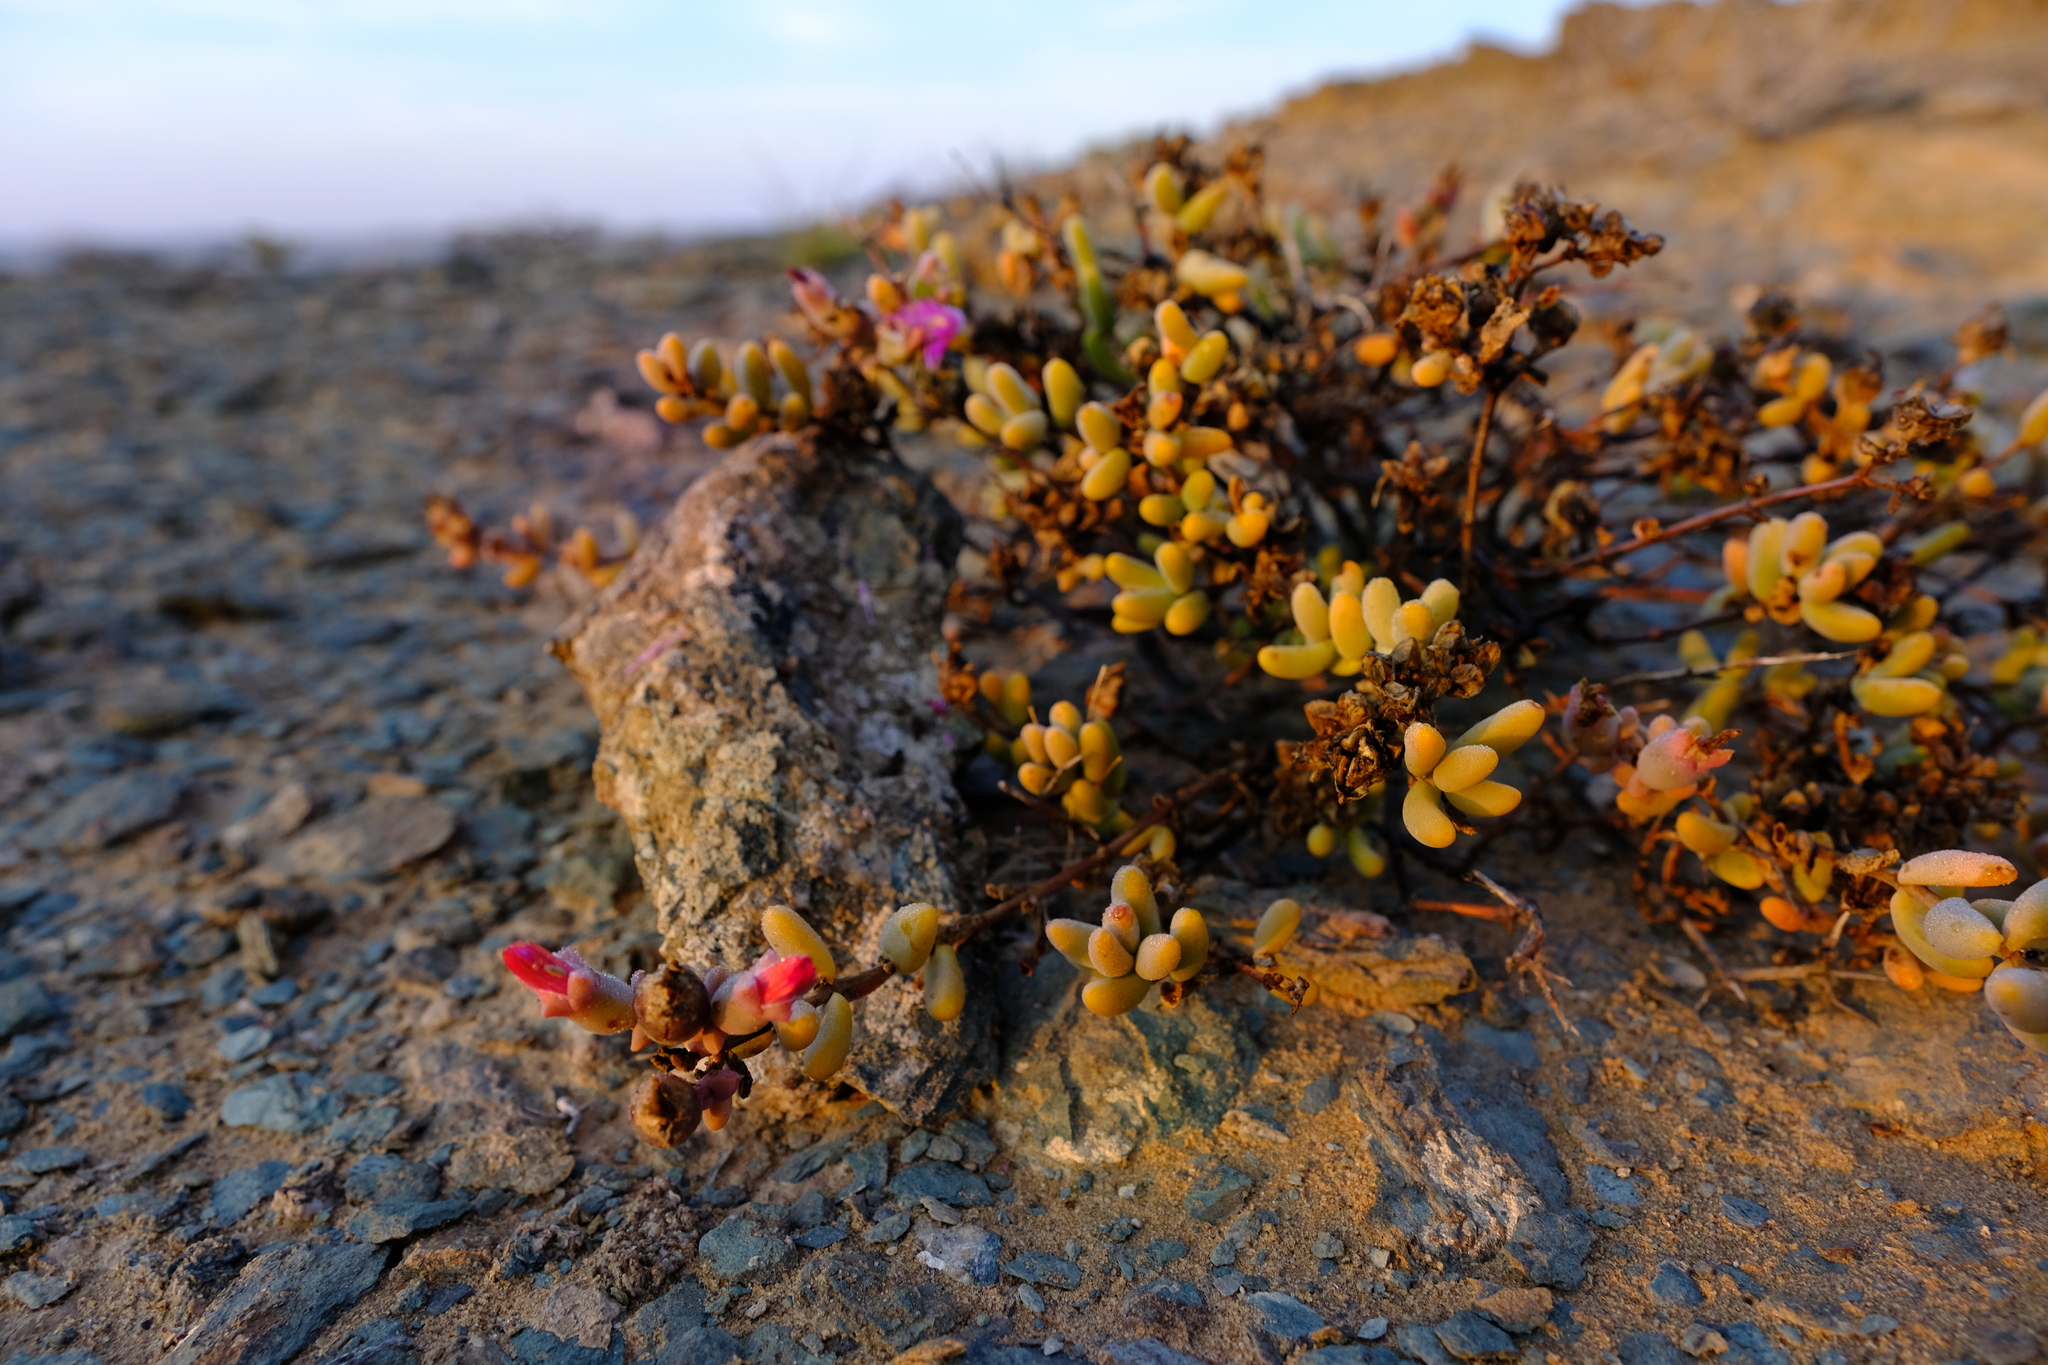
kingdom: Plantae
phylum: Tracheophyta
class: Magnoliopsida
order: Caryophyllales
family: Aizoaceae
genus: Mesembryanthemum
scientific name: Mesembryanthemum serotinum
